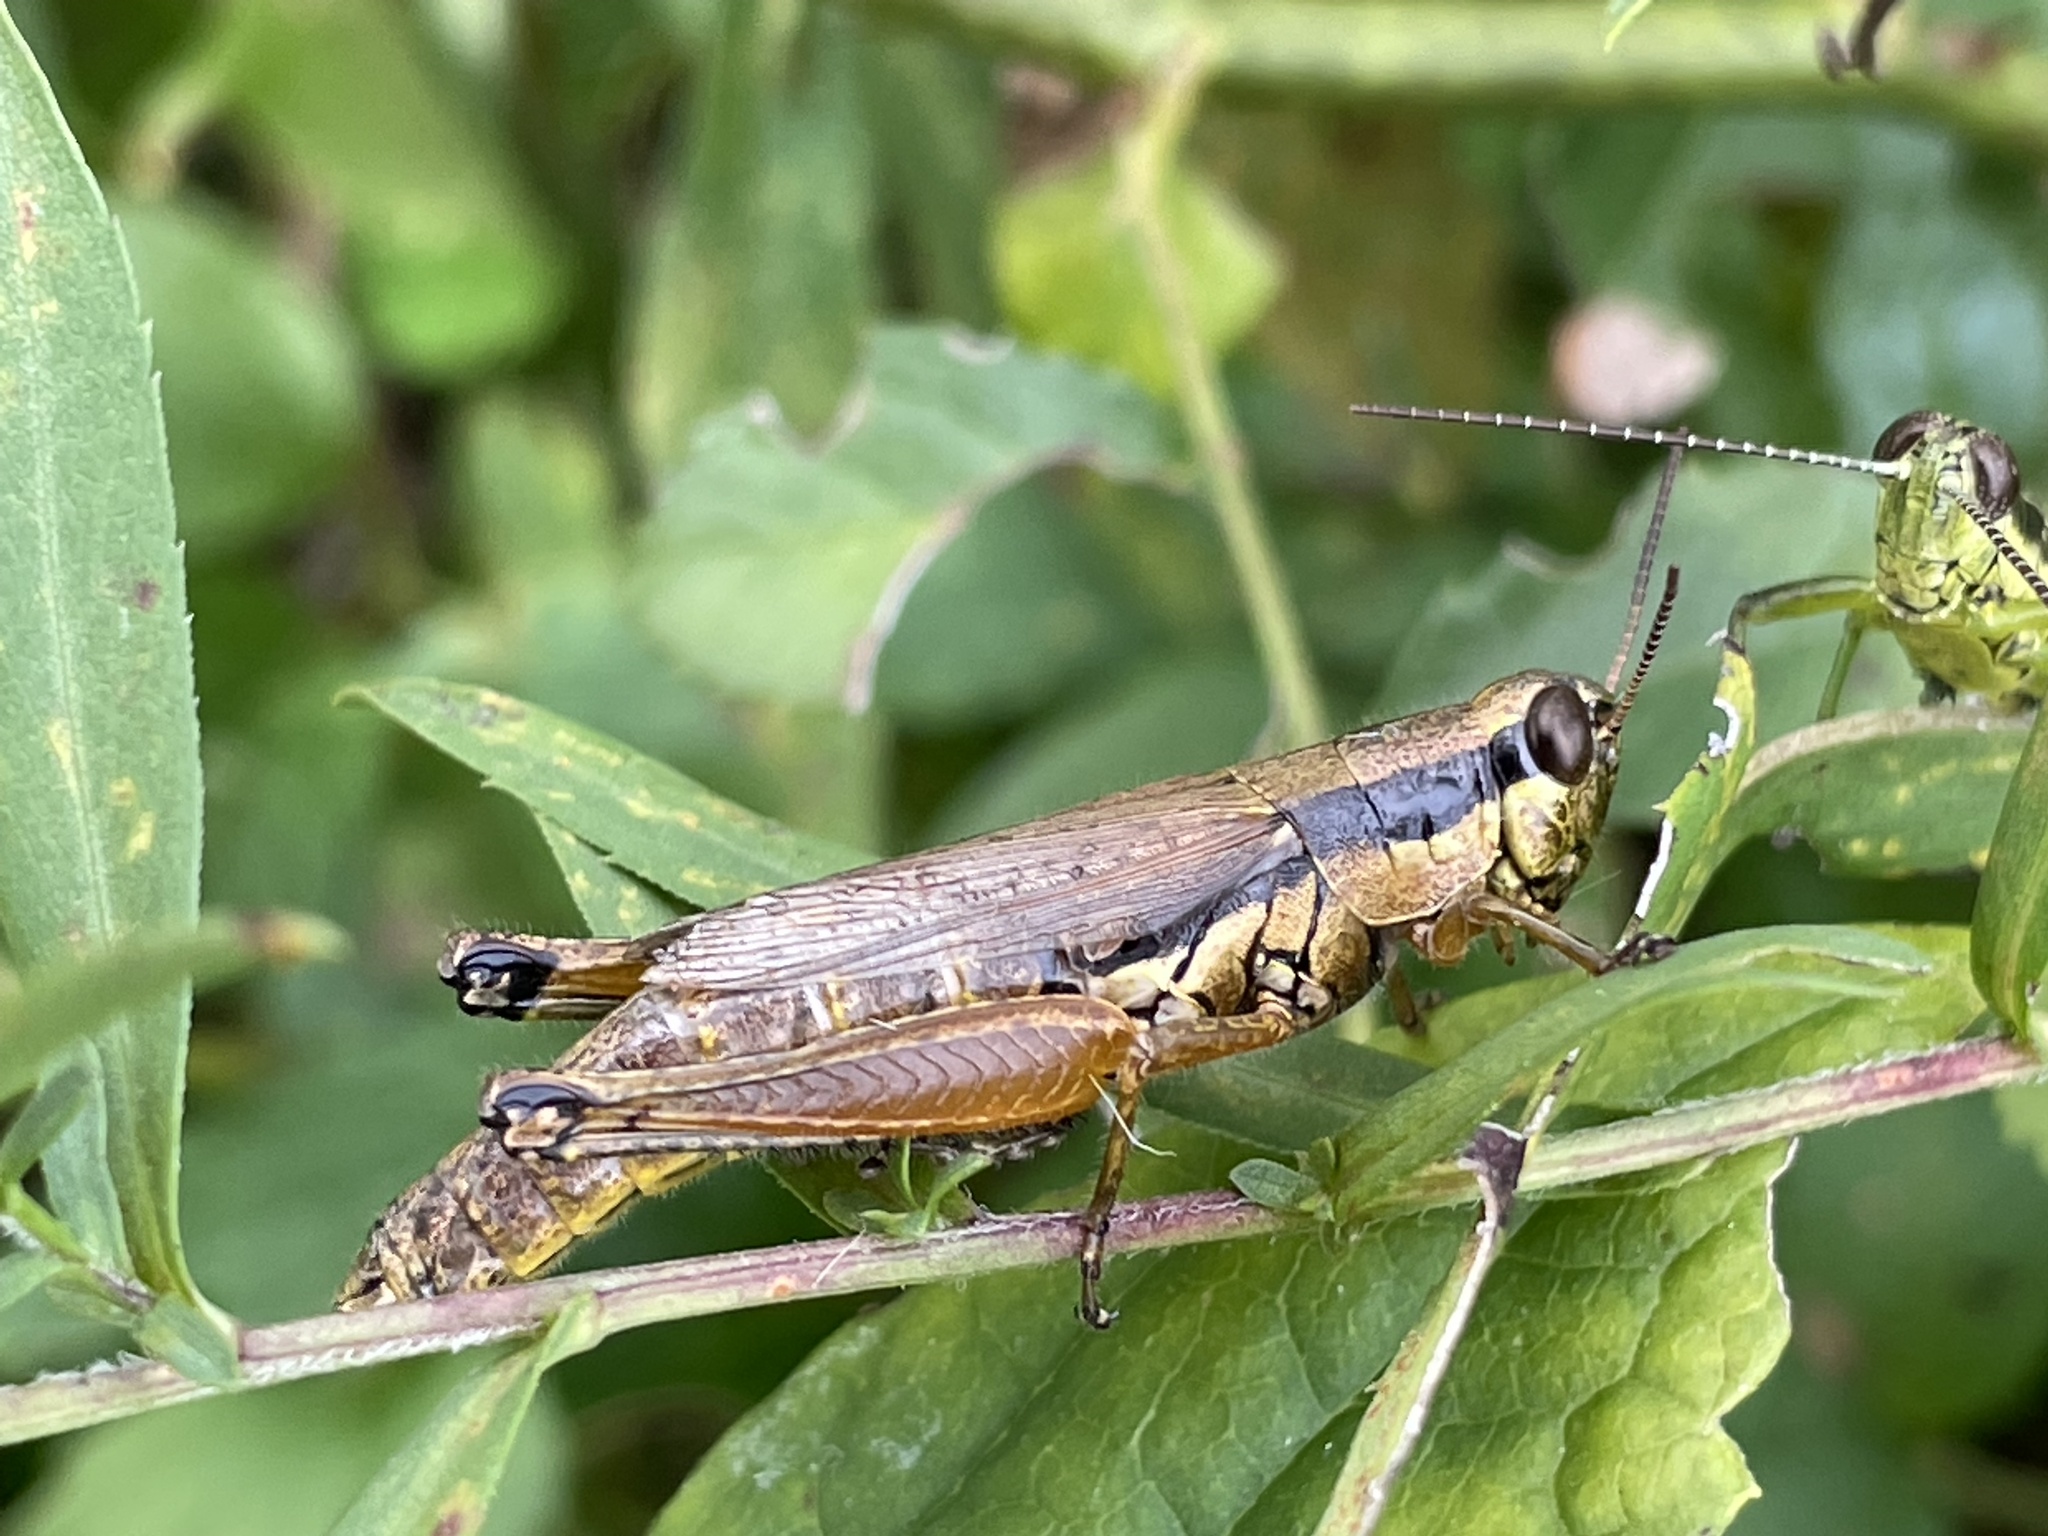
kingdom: Animalia
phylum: Arthropoda
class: Insecta
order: Orthoptera
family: Acrididae
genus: Paroxya
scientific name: Paroxya clavuligera
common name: Olive-green swamp grasshopper
